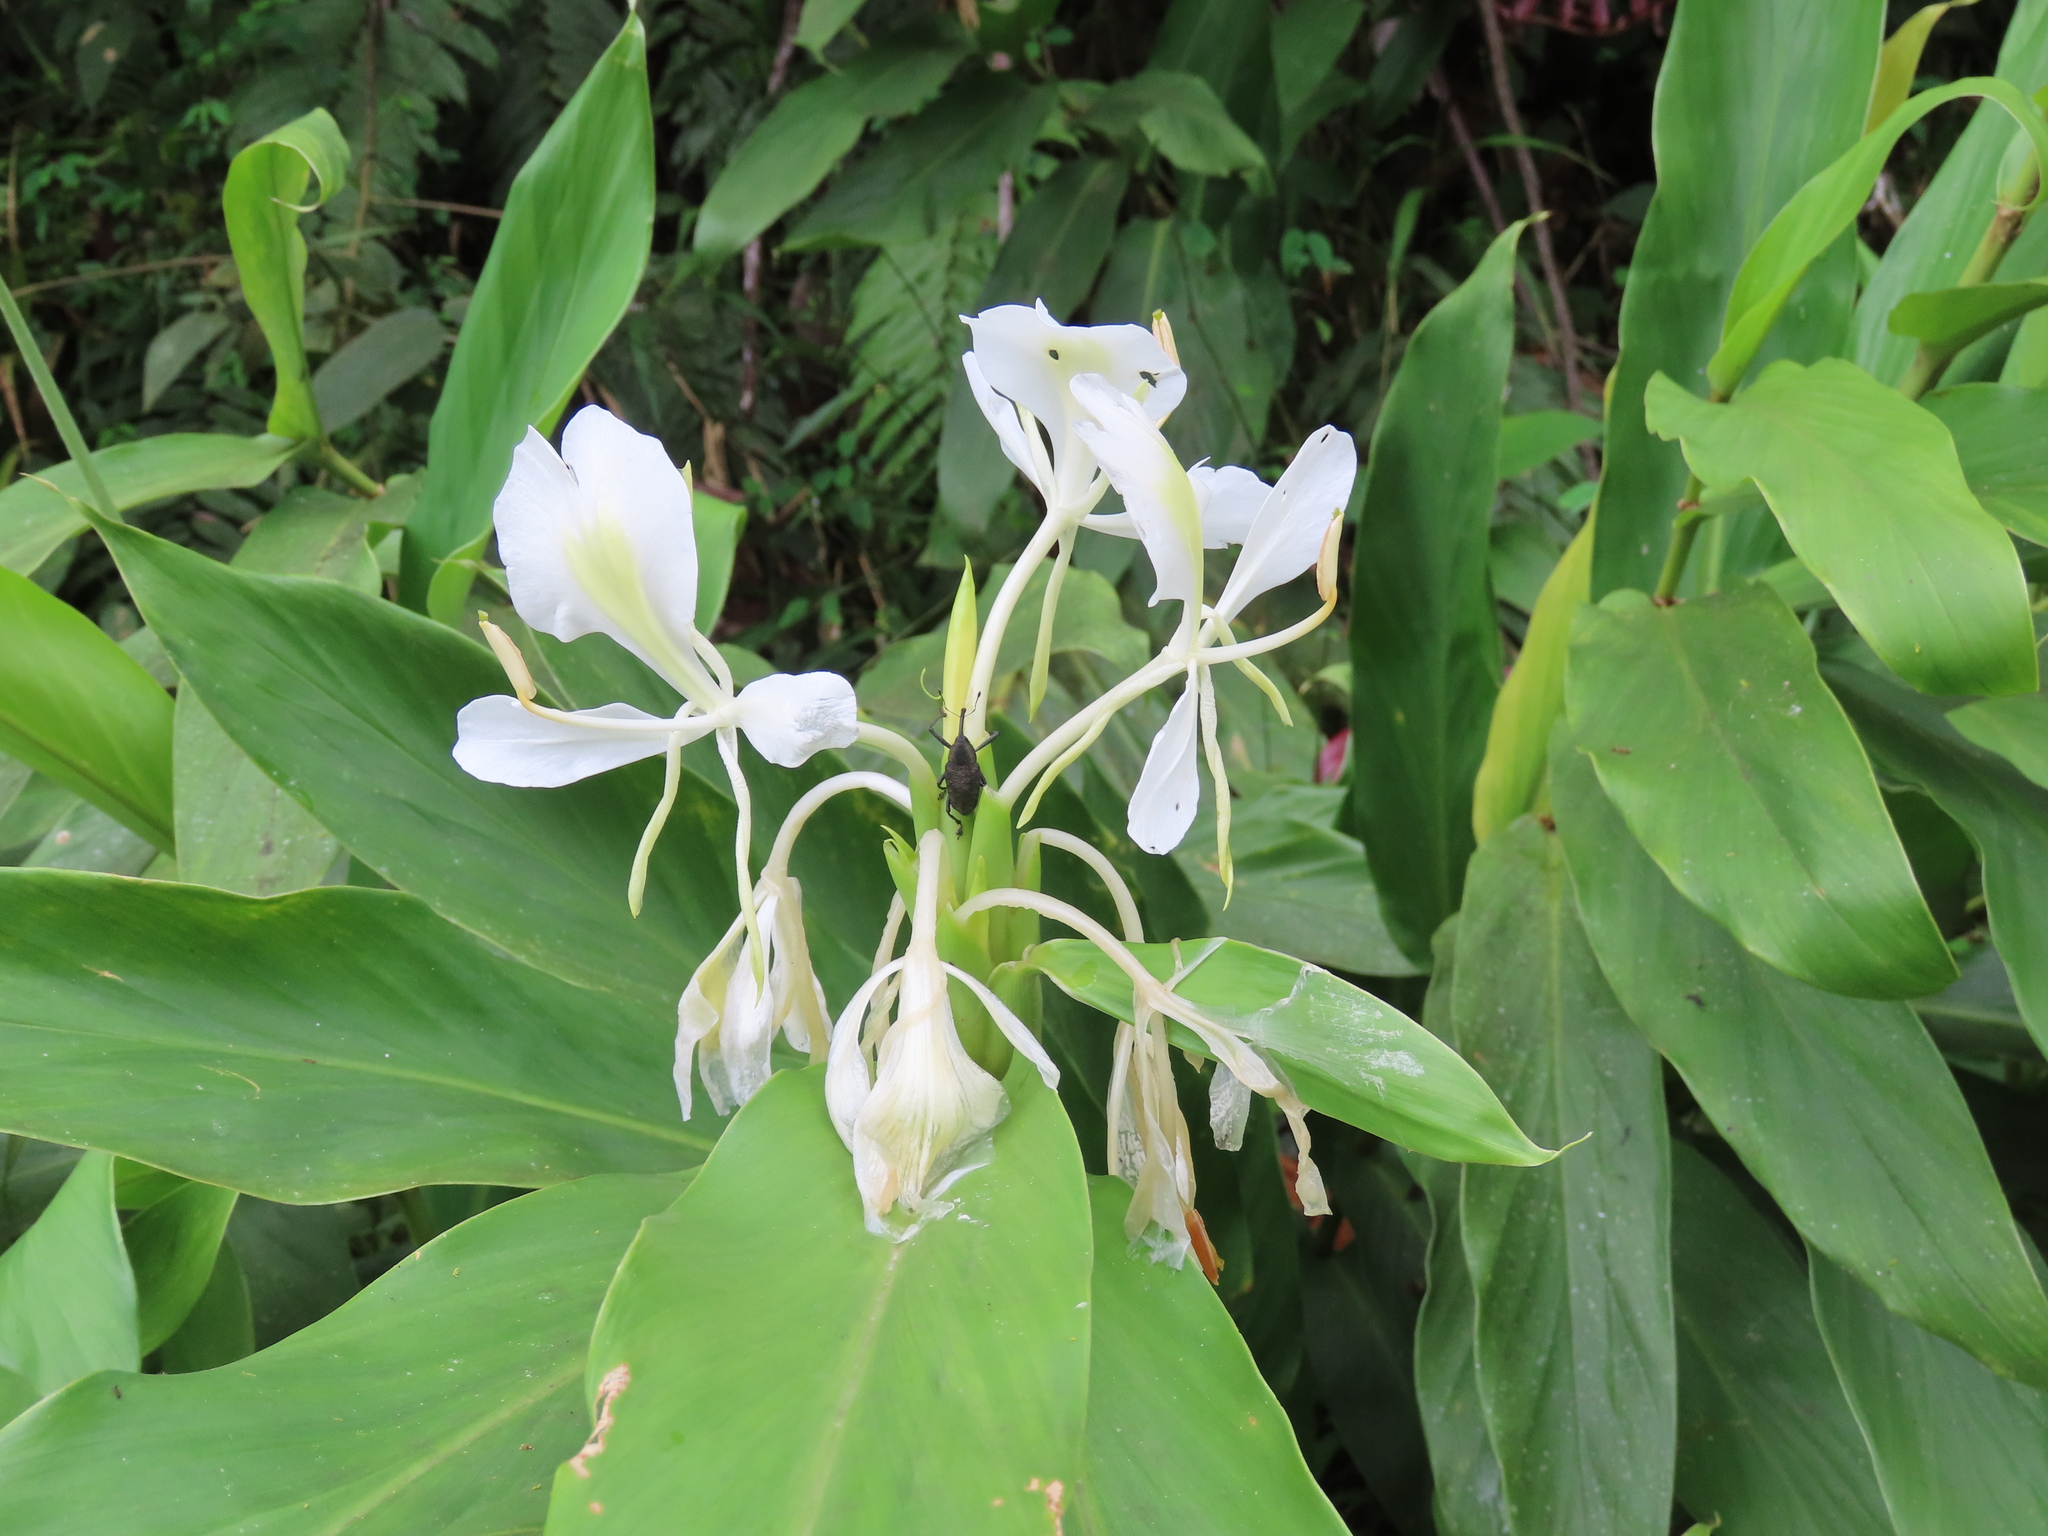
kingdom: Plantae
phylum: Tracheophyta
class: Liliopsida
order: Zingiberales
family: Zingiberaceae
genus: Hedychium
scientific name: Hedychium coronarium
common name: White garland-lily
